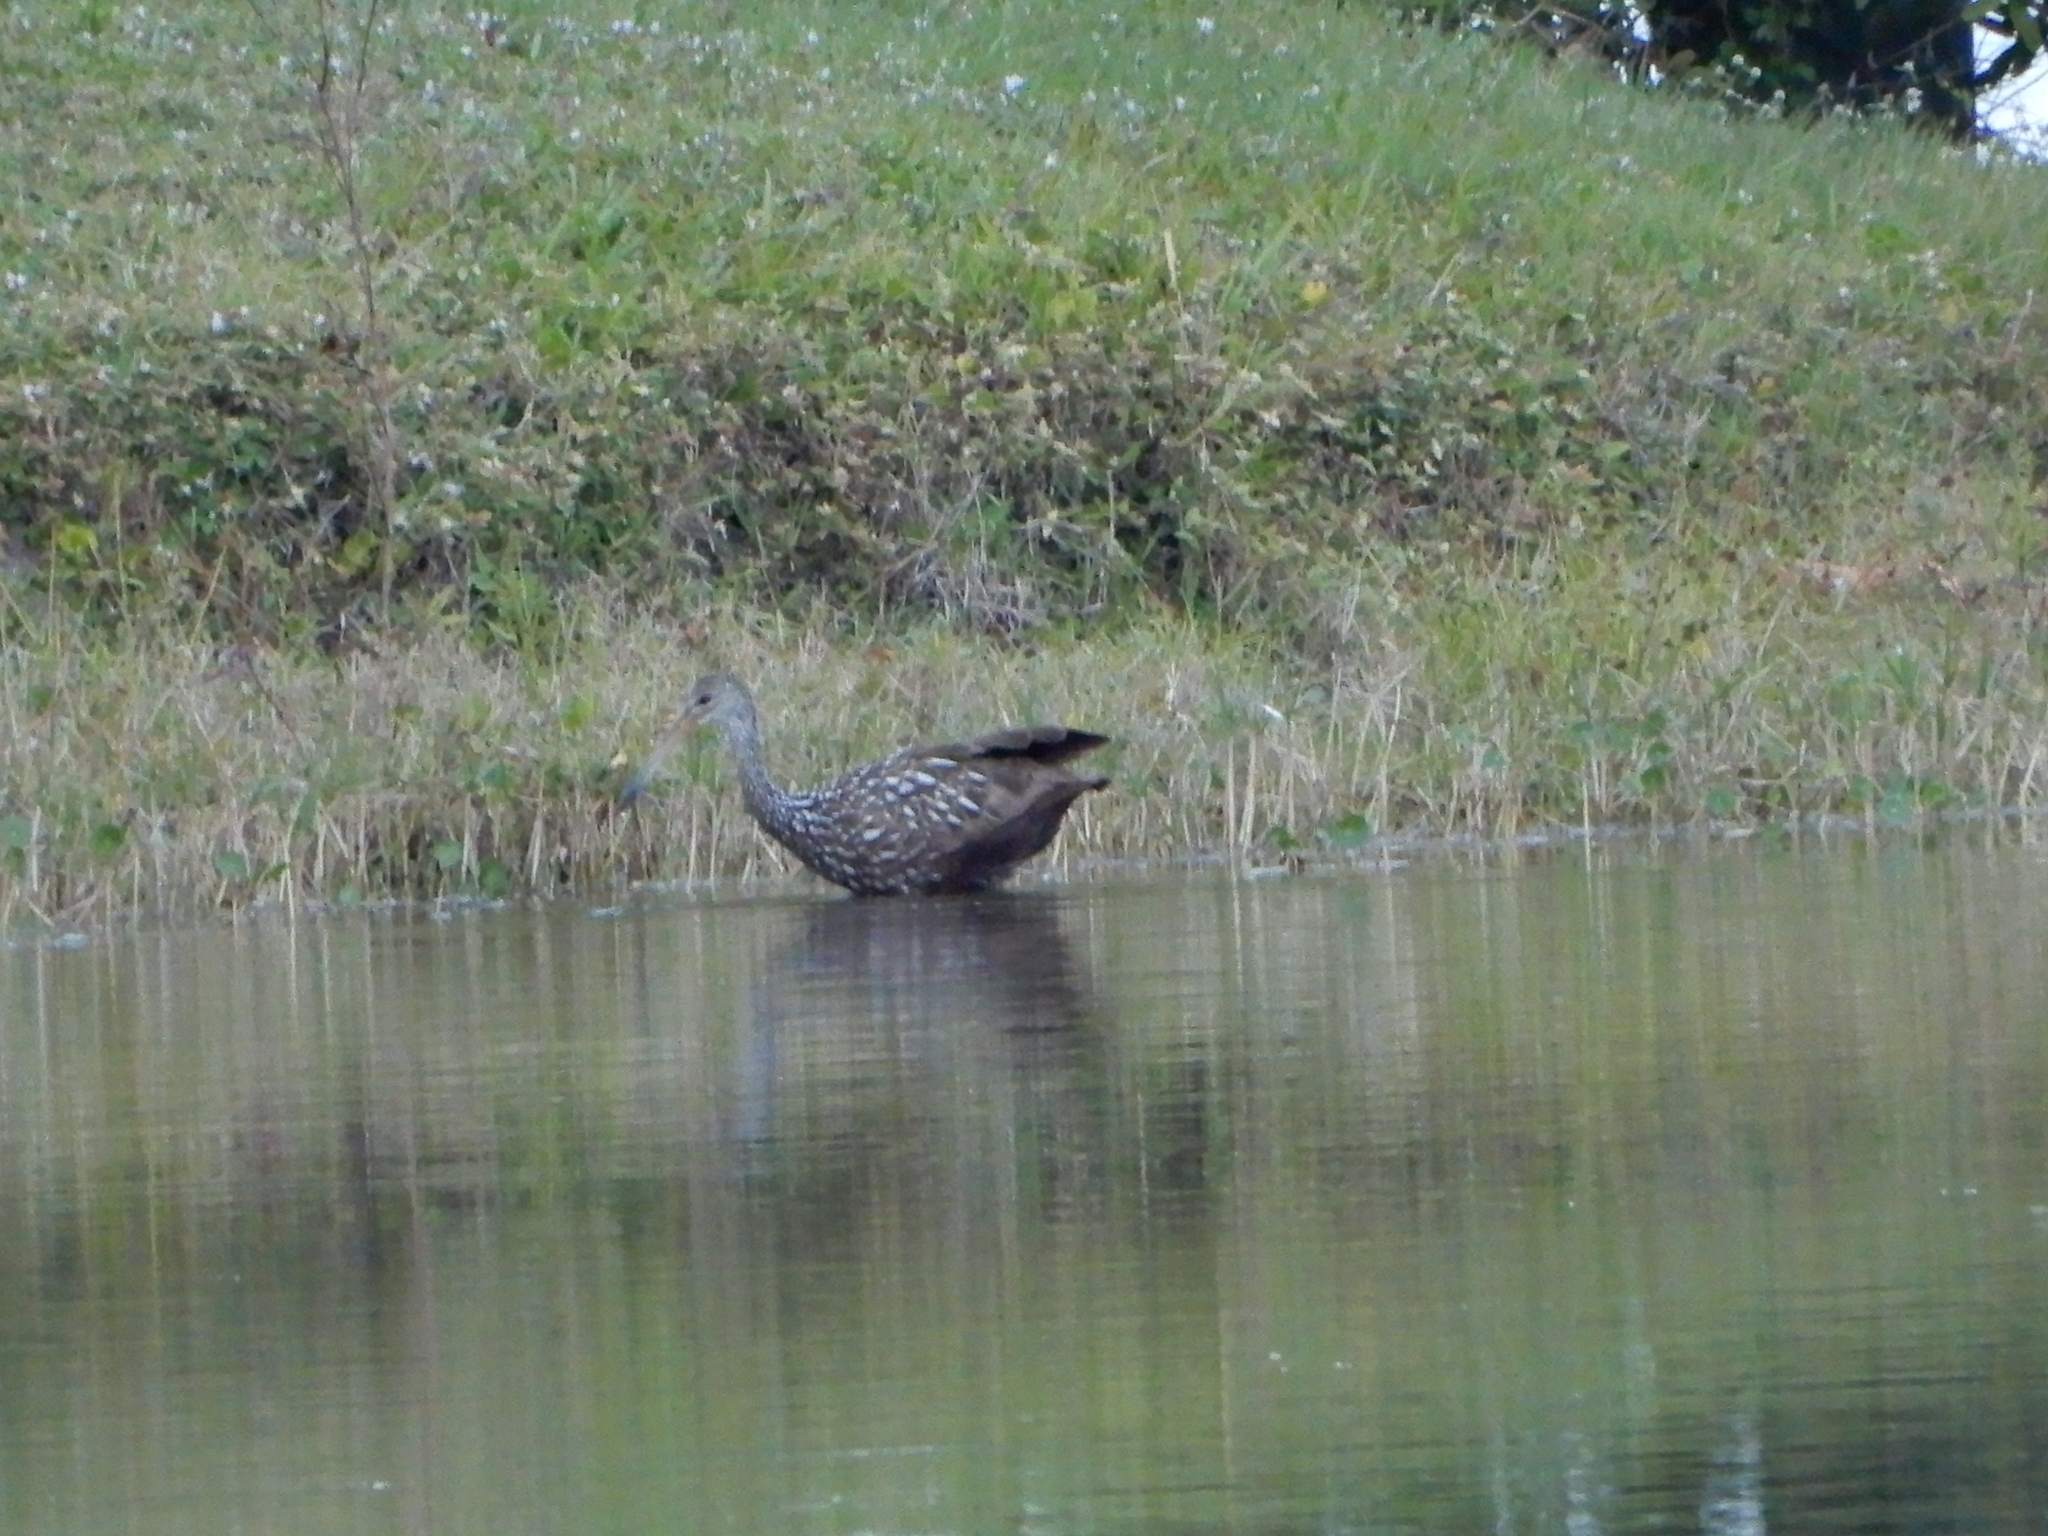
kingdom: Animalia
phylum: Chordata
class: Aves
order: Gruiformes
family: Aramidae
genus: Aramus
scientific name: Aramus guarauna
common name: Limpkin
